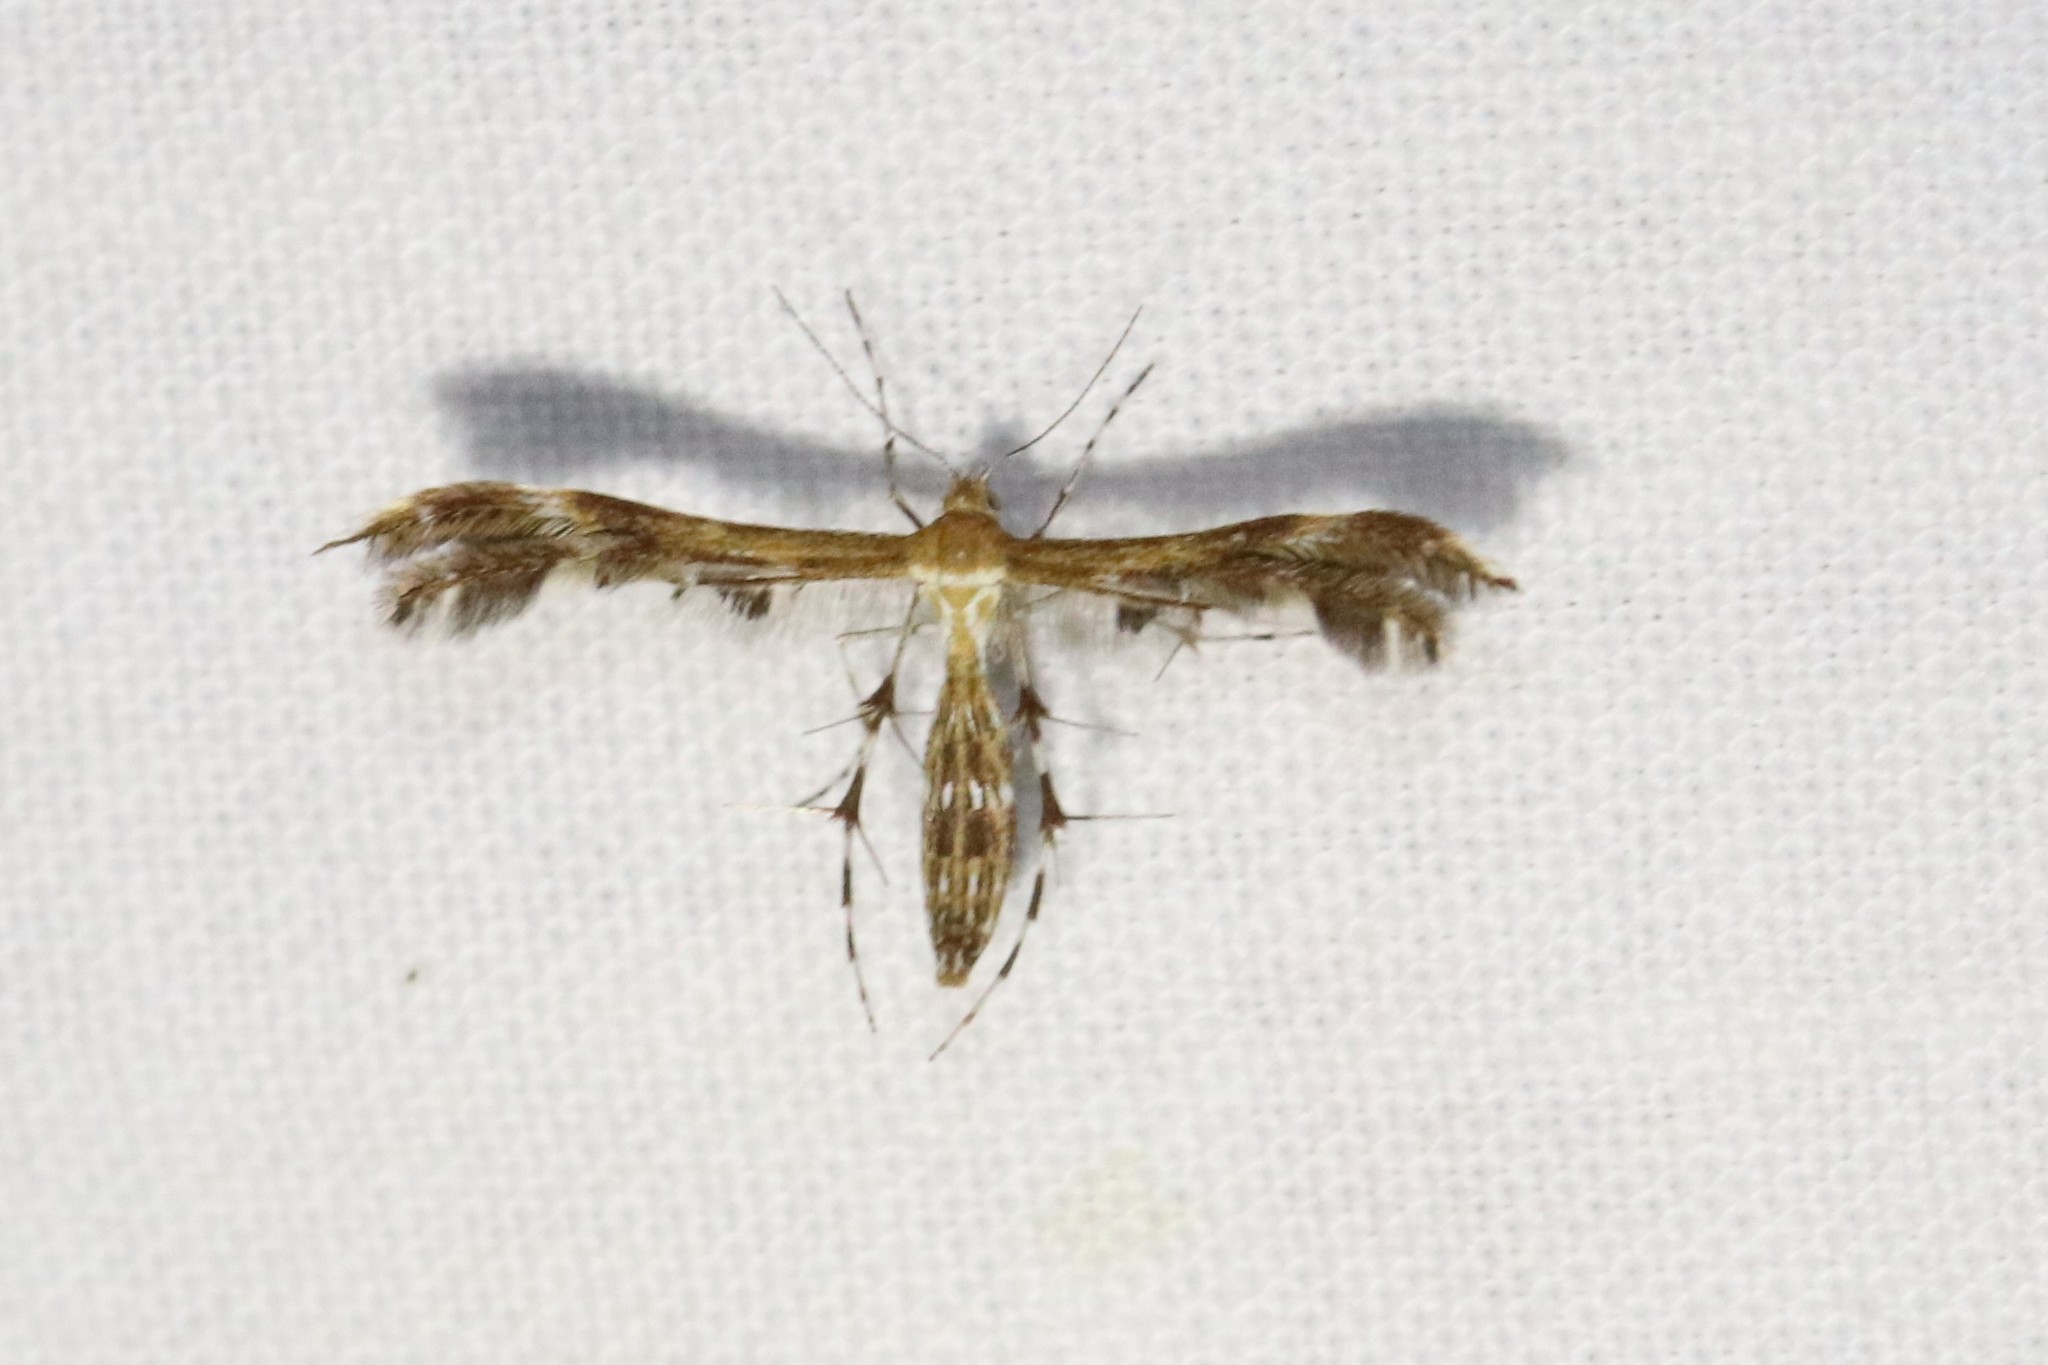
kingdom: Animalia
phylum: Arthropoda
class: Insecta
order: Lepidoptera
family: Pterophoridae
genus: Dejongia
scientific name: Dejongia lobidactylus
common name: Lobed plume moth
